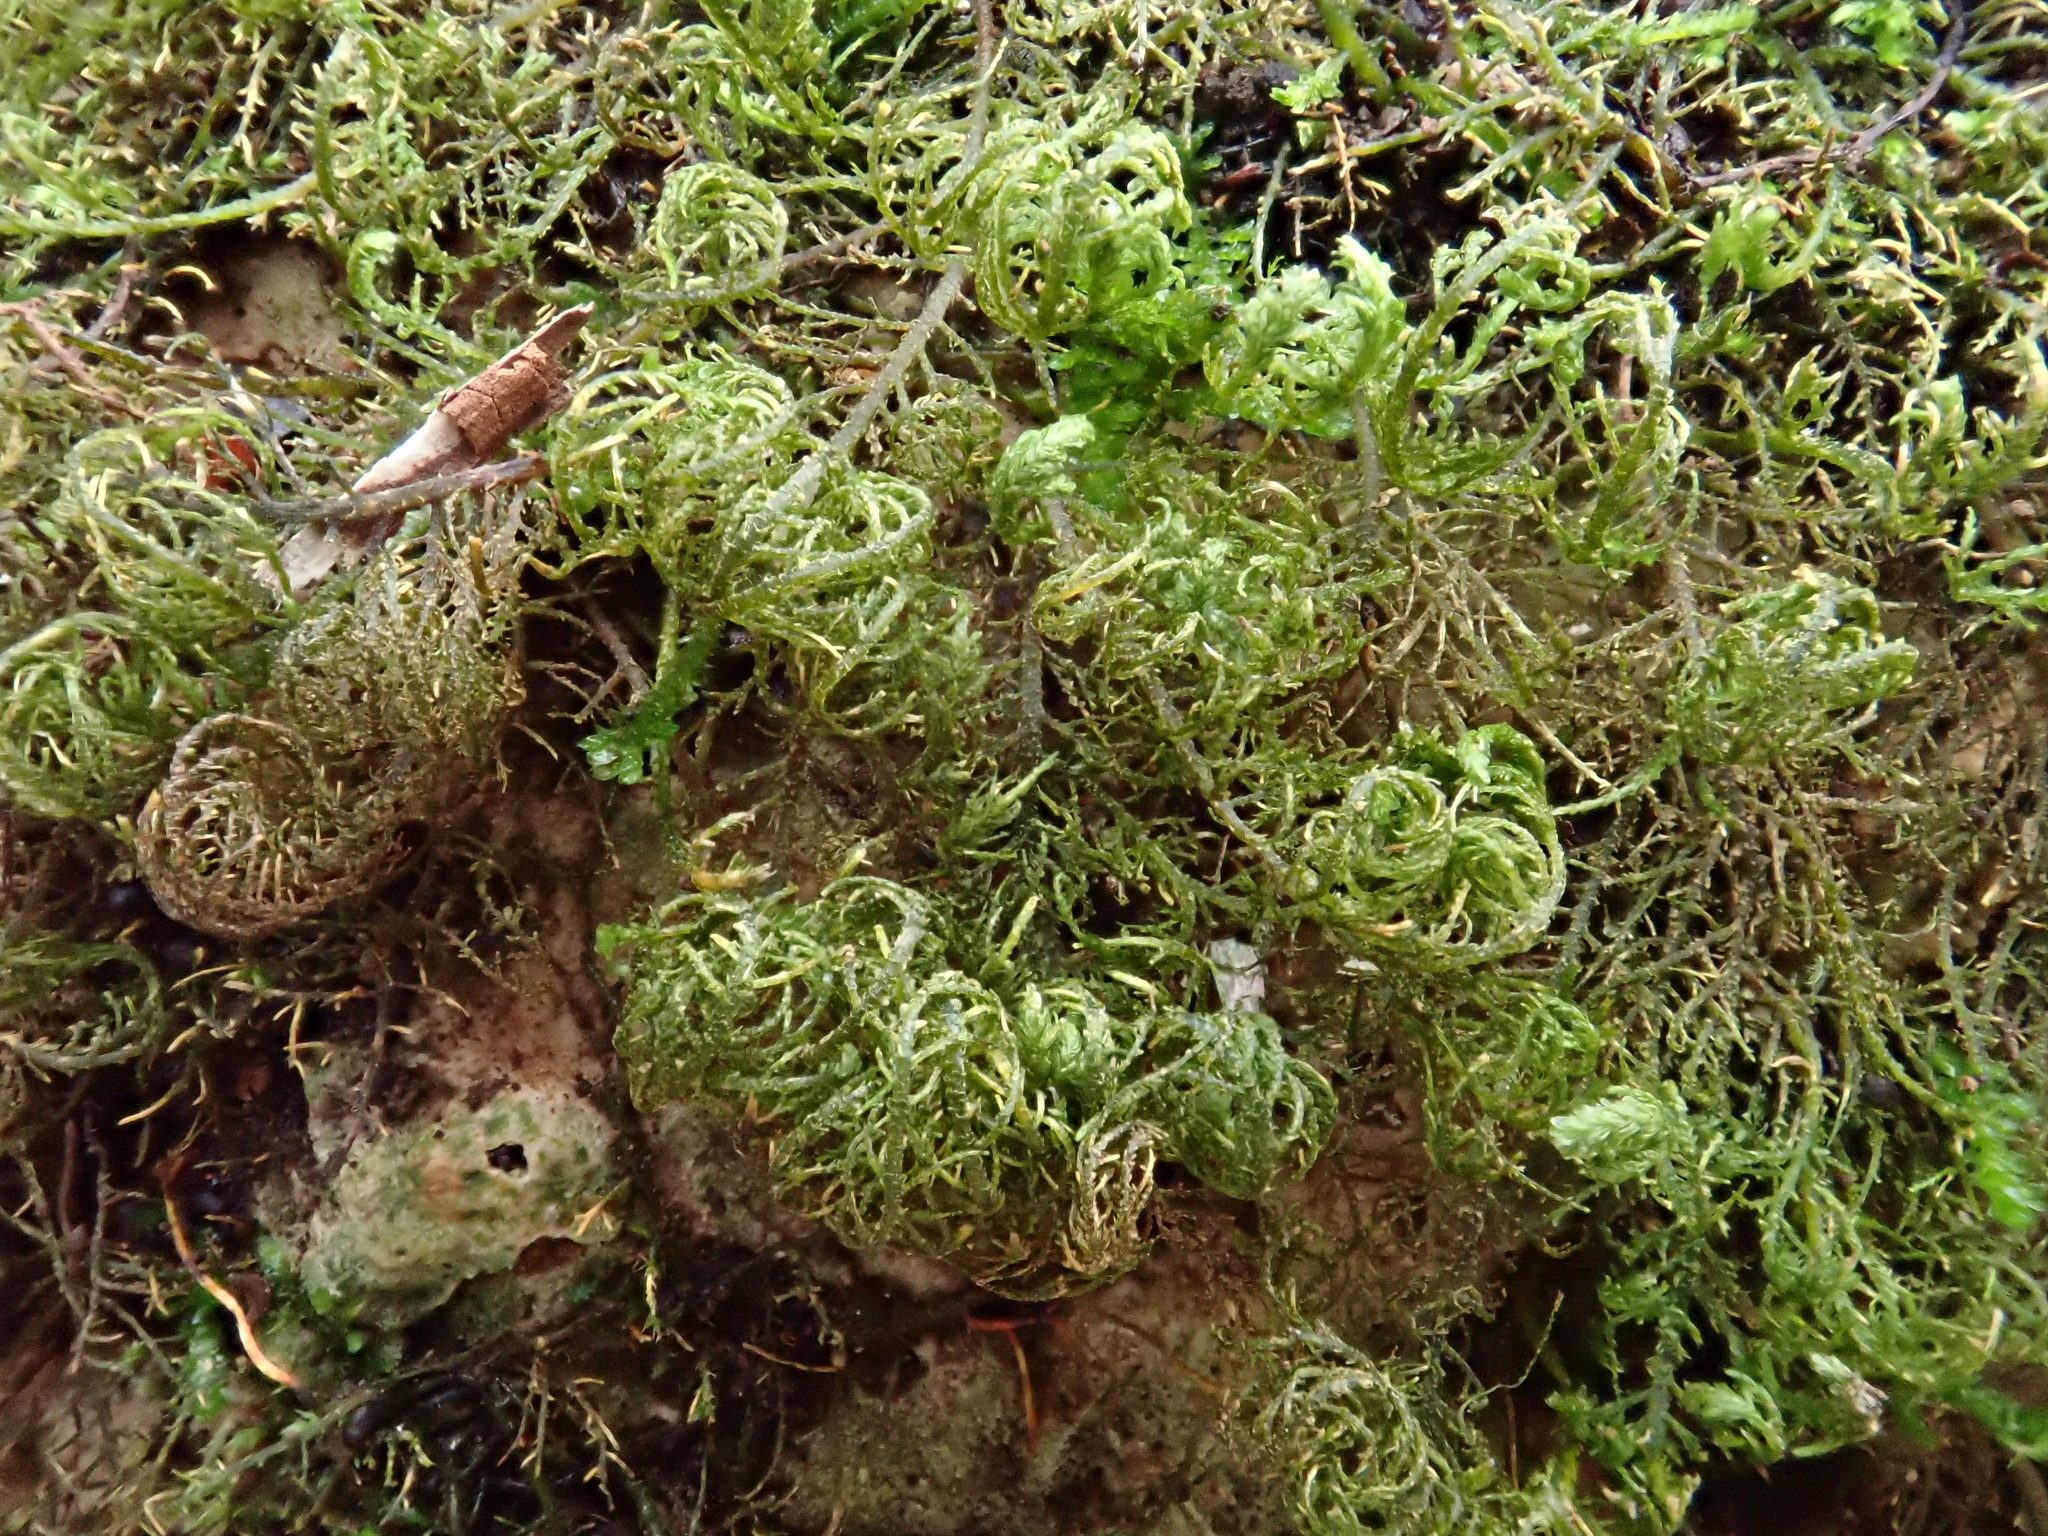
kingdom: Plantae
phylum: Bryophyta
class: Bryopsida
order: Hypnales
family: Neckeraceae
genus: Leptodon
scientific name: Leptodon smithii
